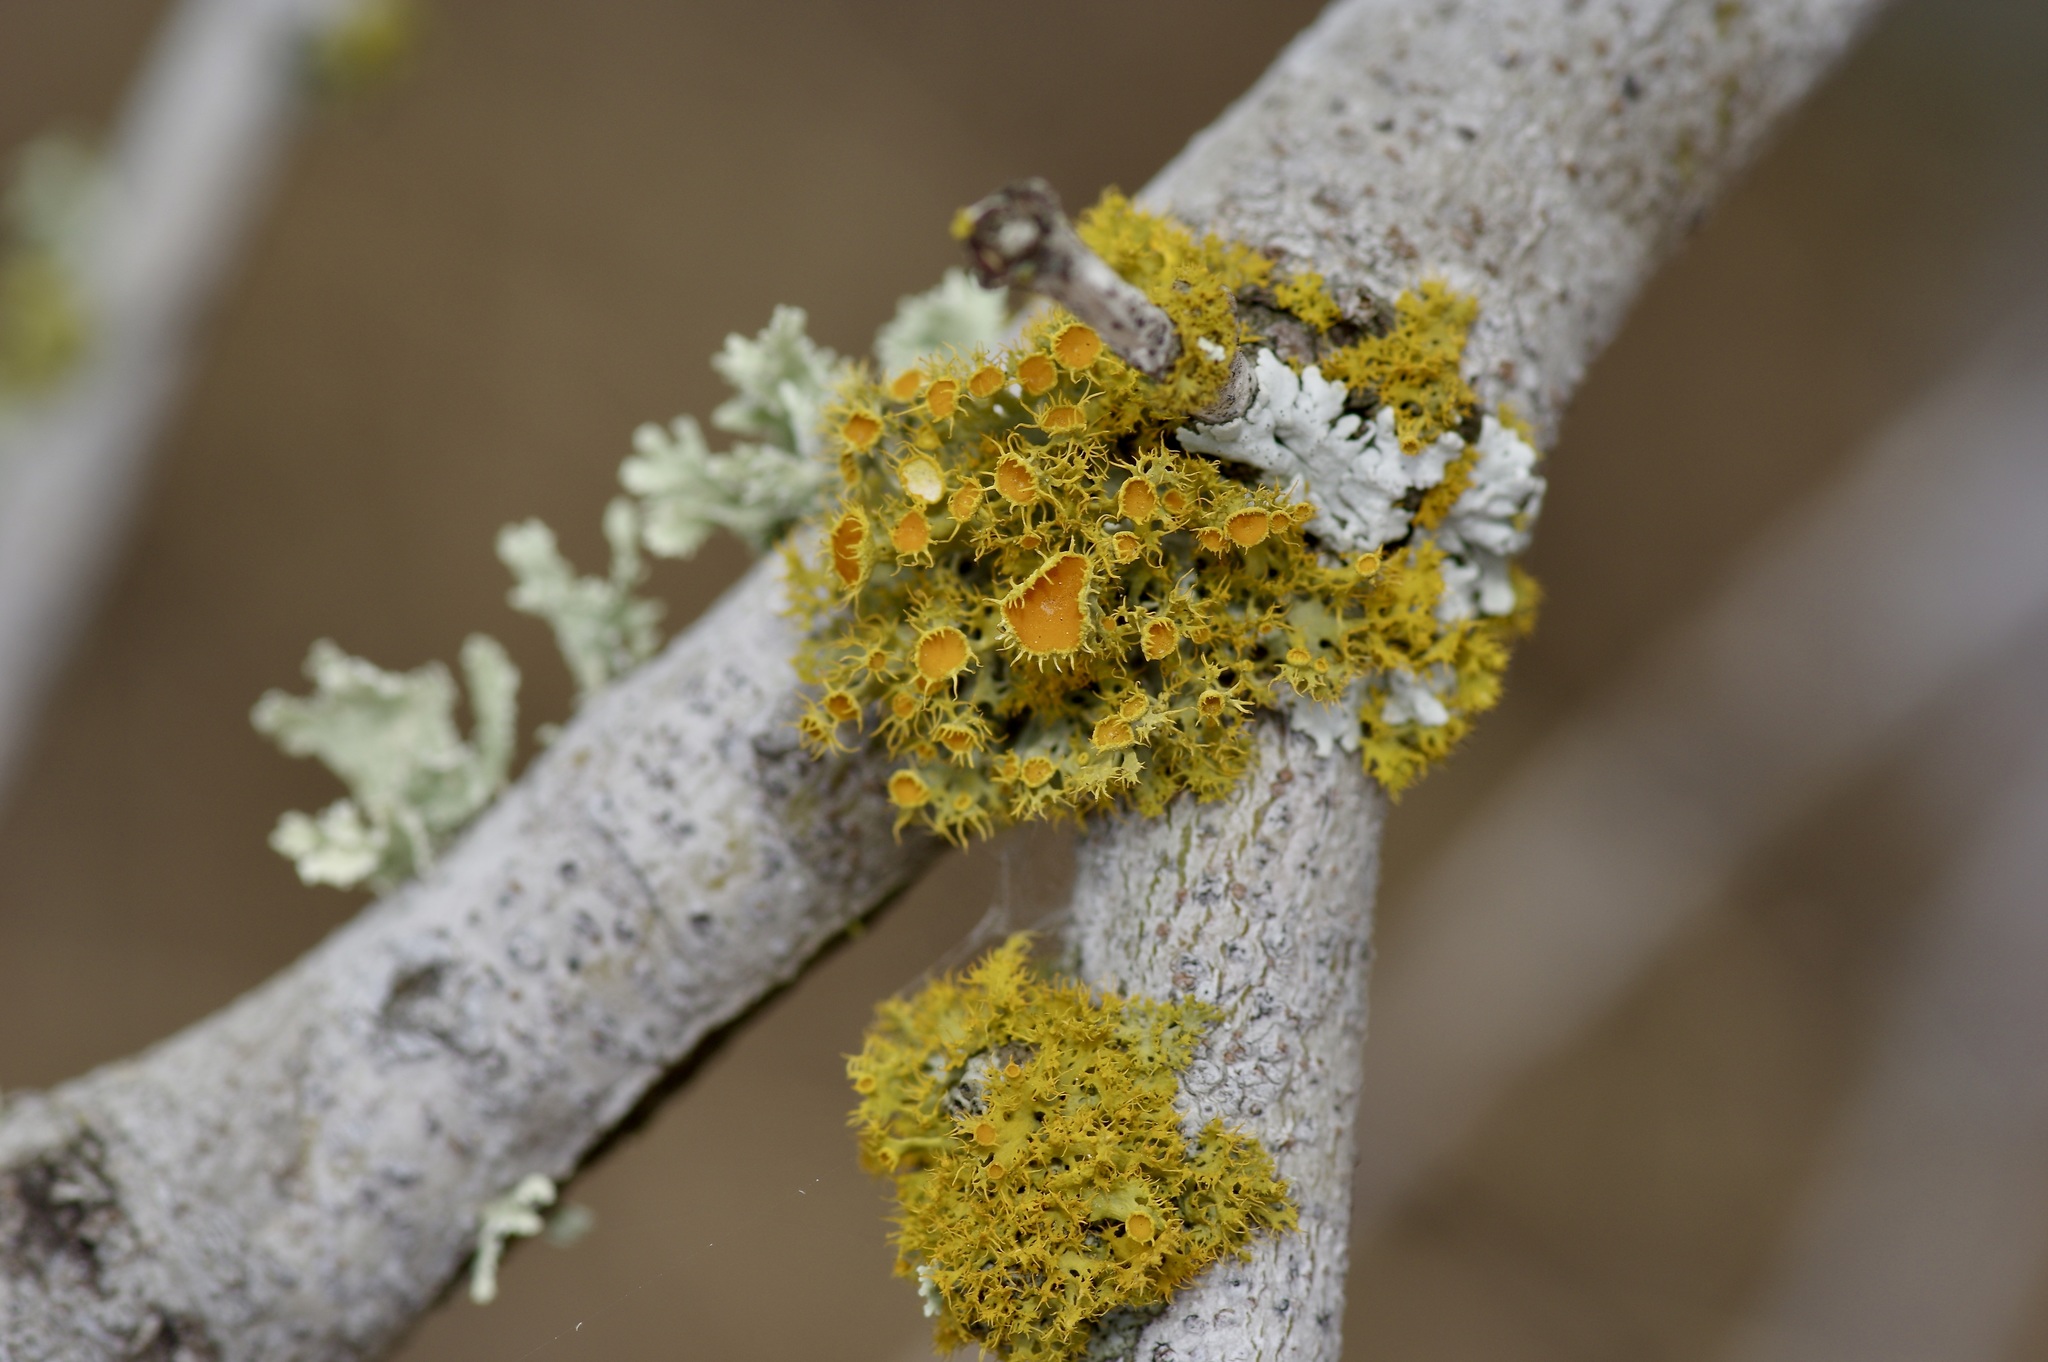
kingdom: Fungi
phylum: Ascomycota
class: Lecanoromycetes
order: Teloschistales
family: Teloschistaceae
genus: Niorma
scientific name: Niorma chrysophthalma
